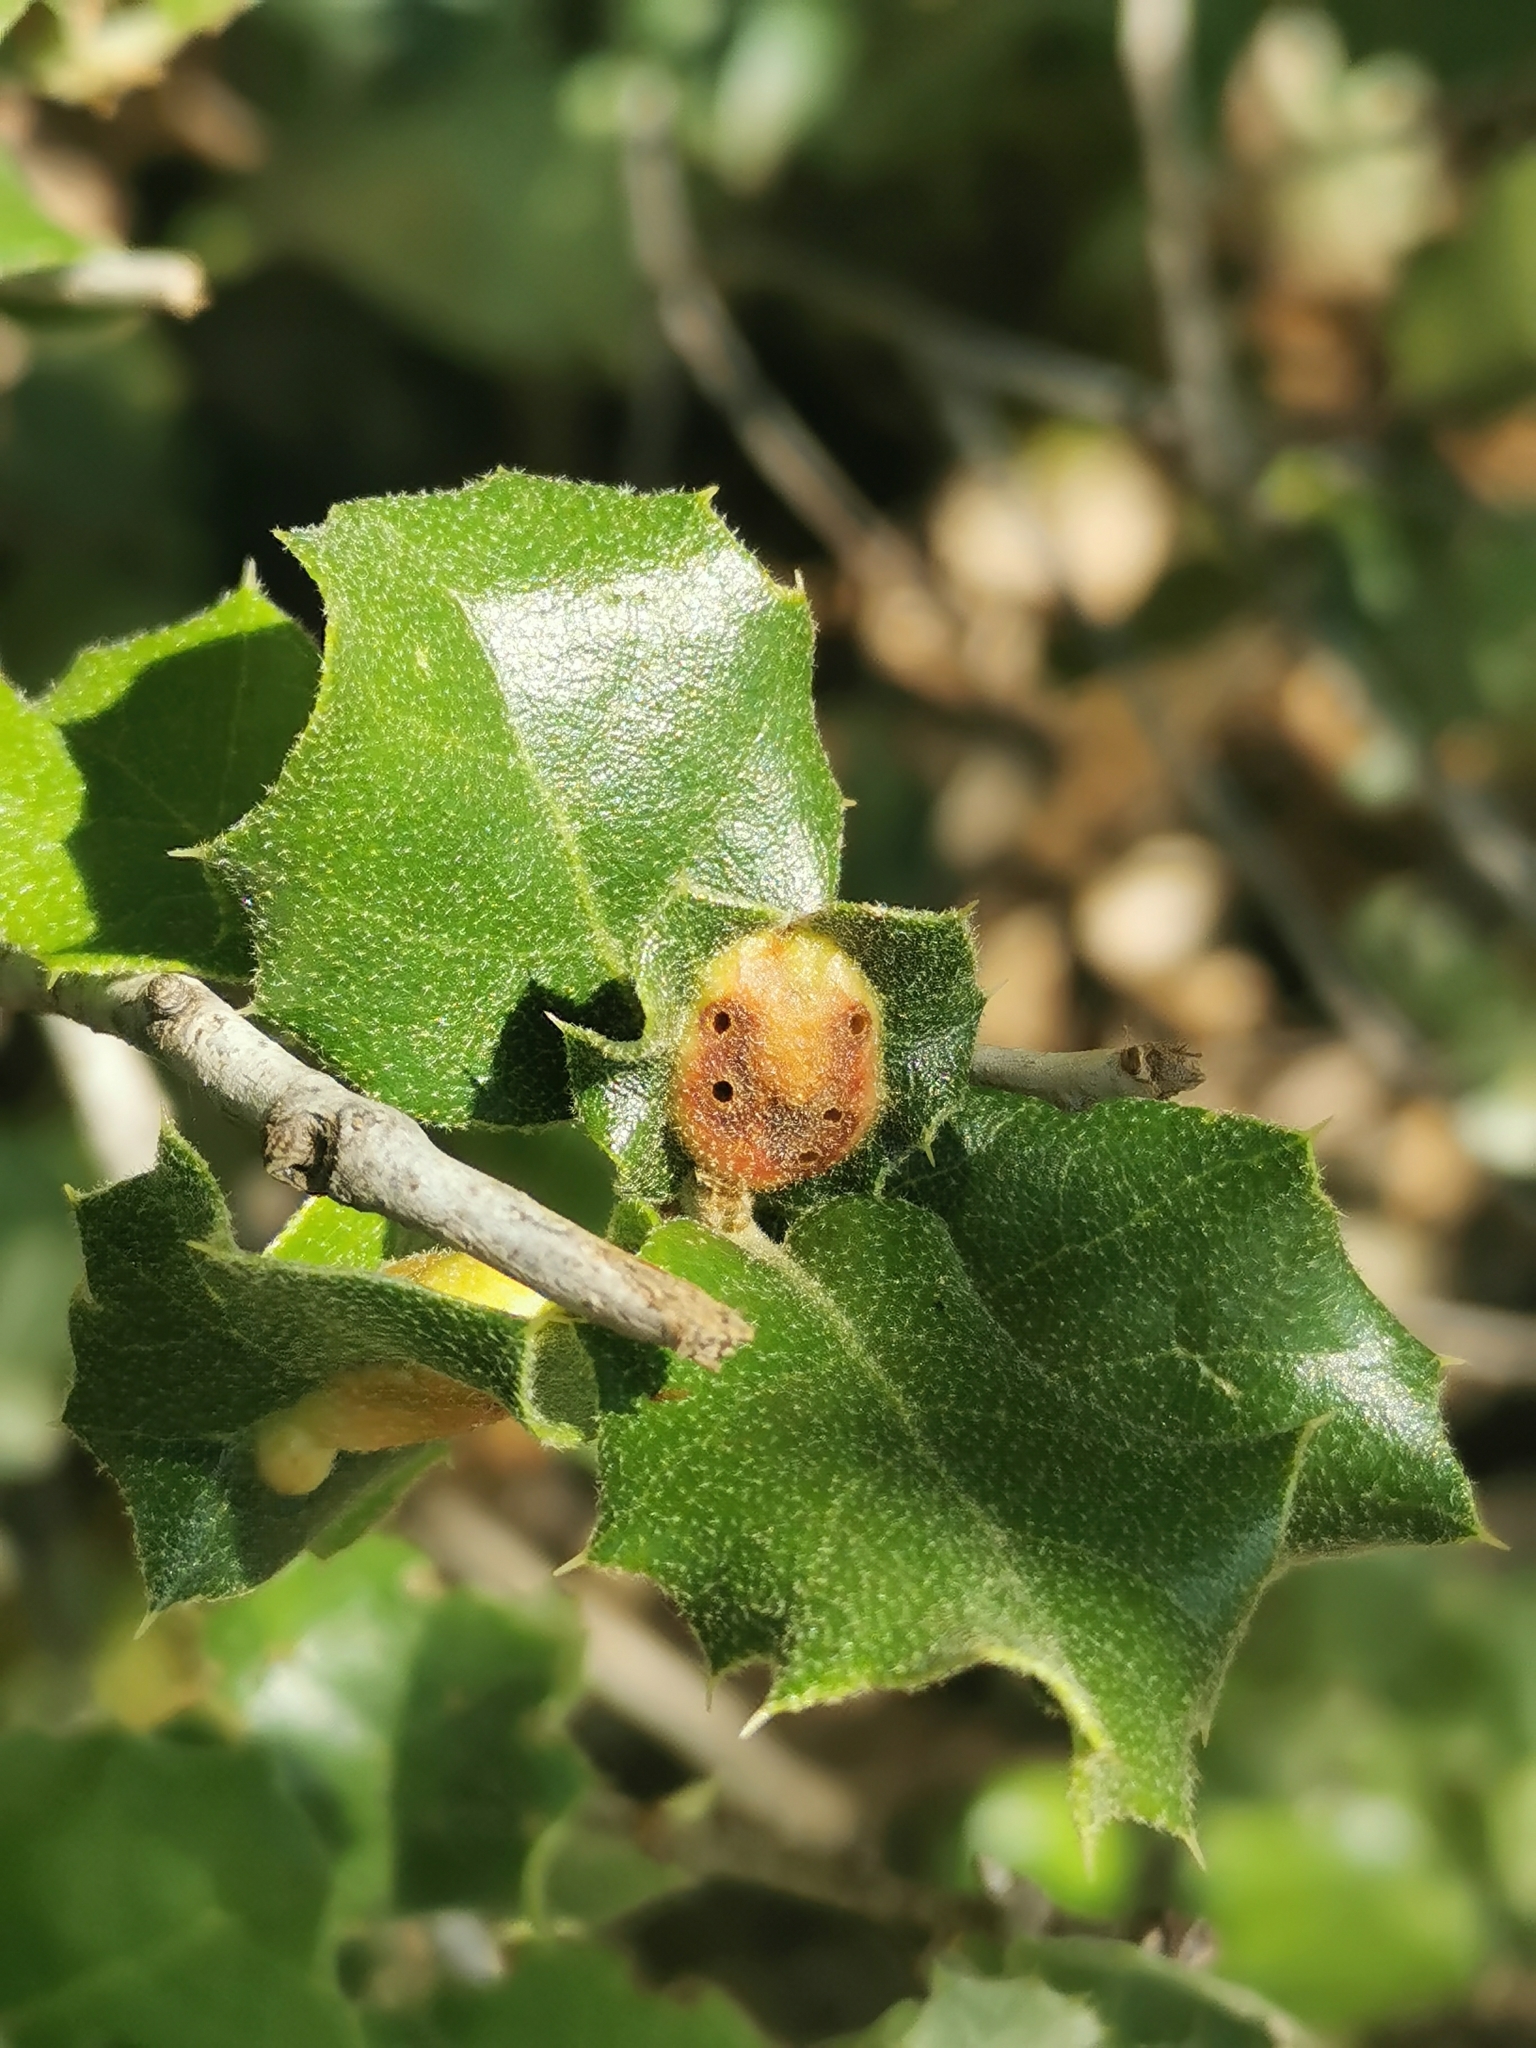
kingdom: Animalia
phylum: Arthropoda
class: Insecta
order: Hymenoptera
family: Cynipidae
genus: Plagiotrochus
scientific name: Plagiotrochus quercusilicis
